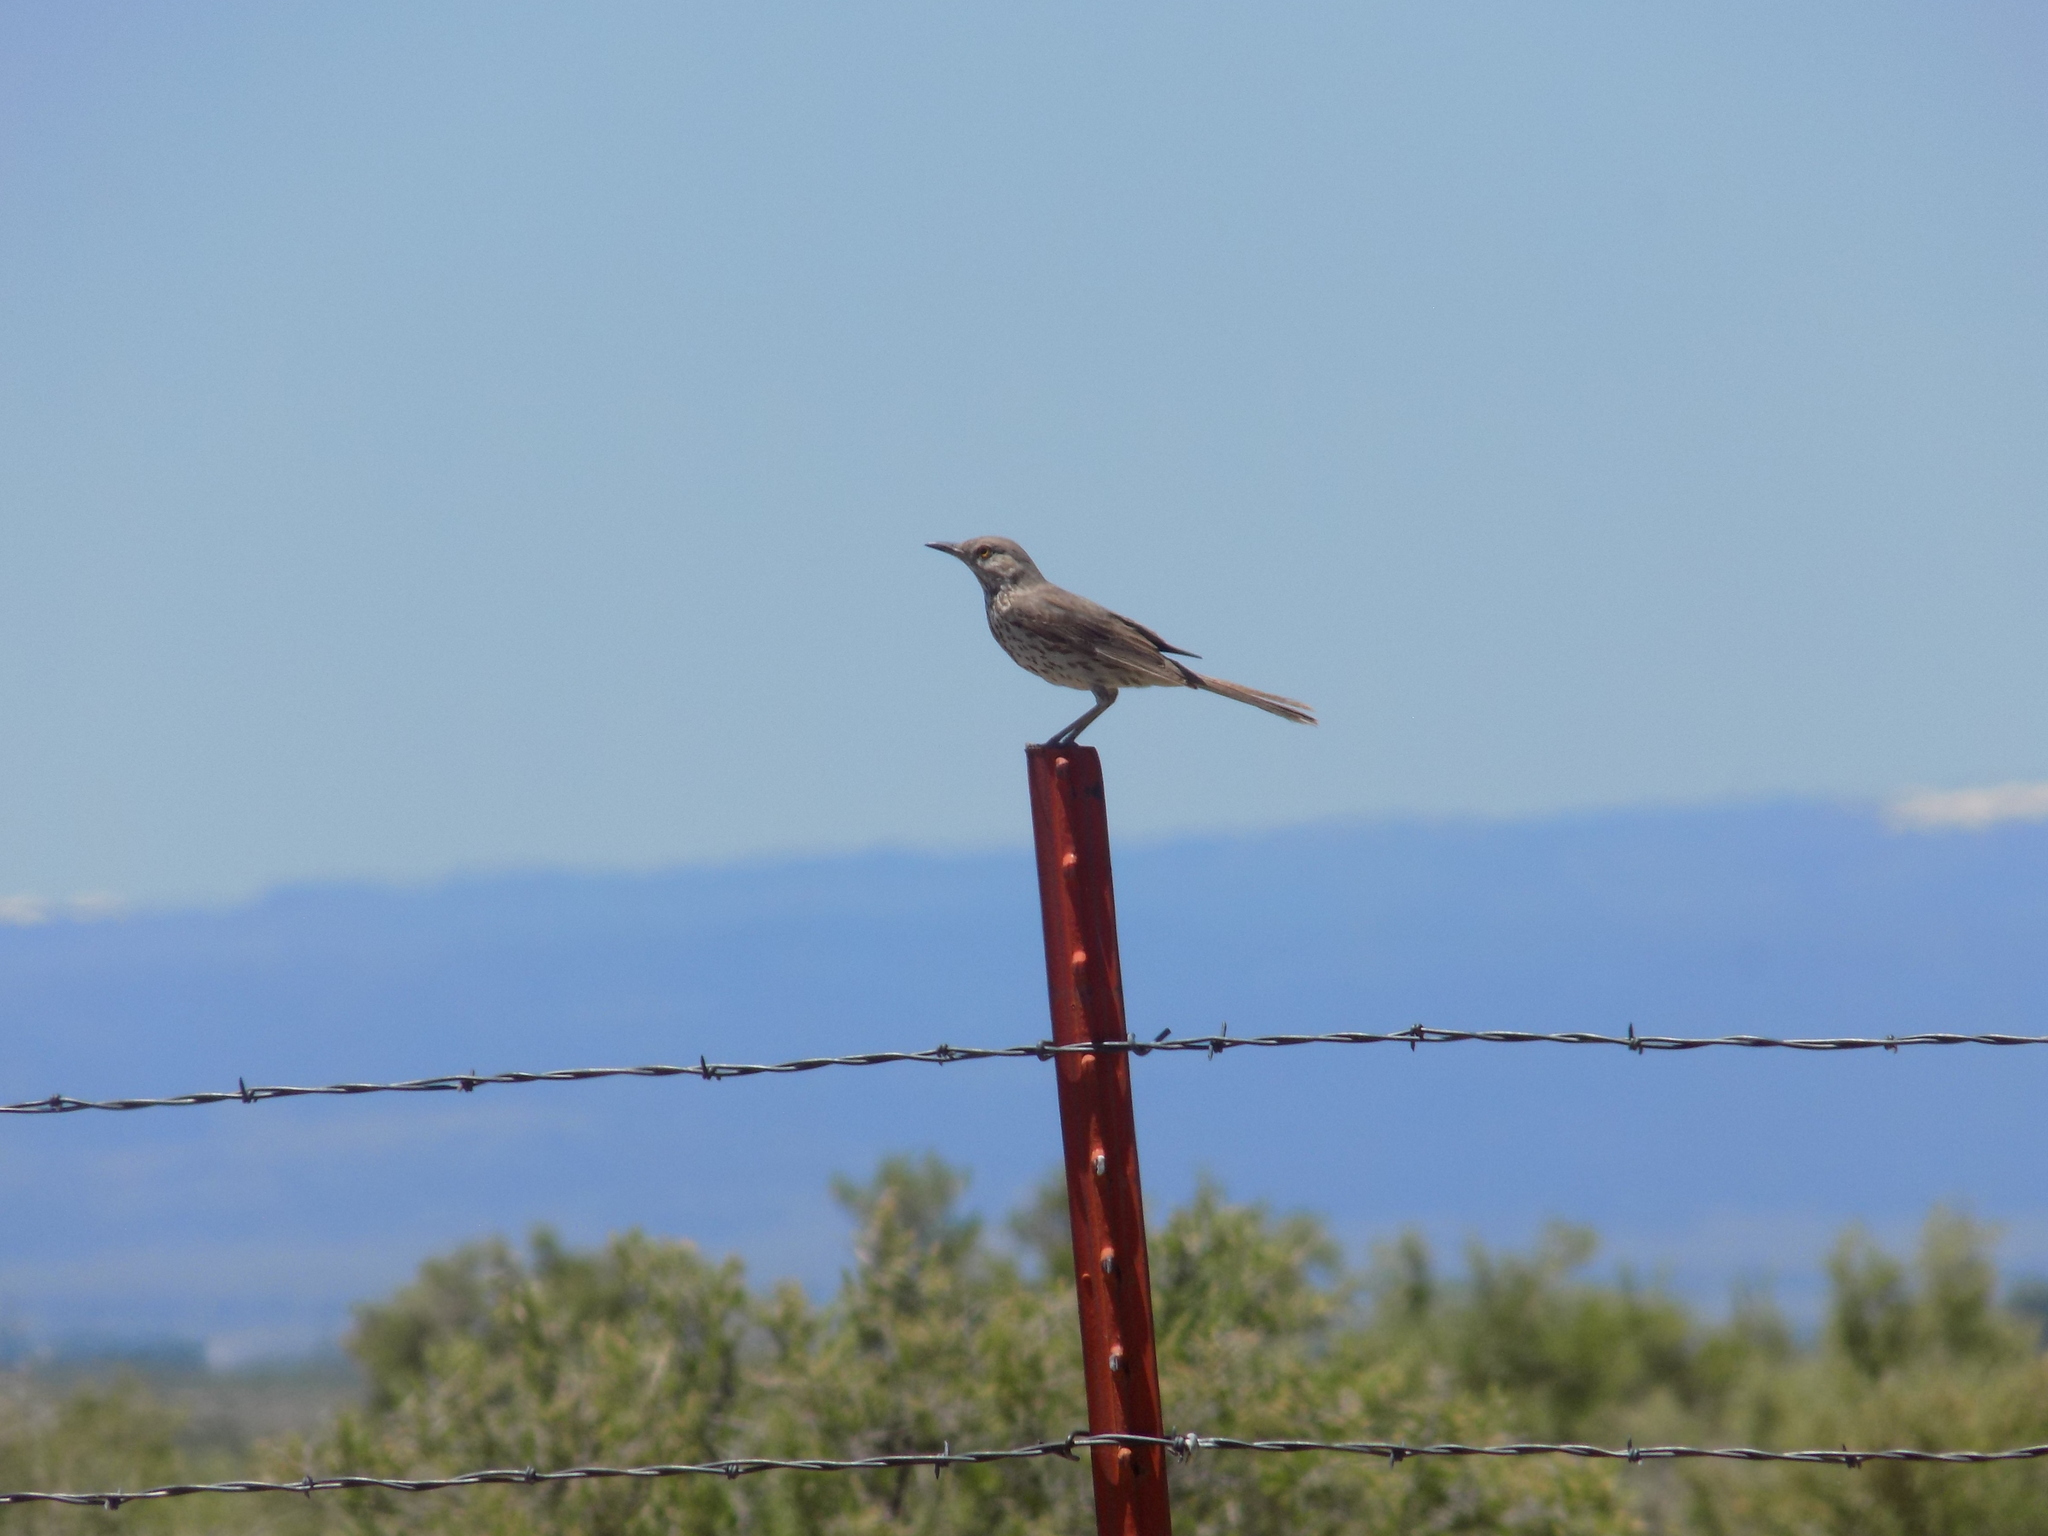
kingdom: Animalia
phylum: Chordata
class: Aves
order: Passeriformes
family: Mimidae
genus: Oreoscoptes
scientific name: Oreoscoptes montanus
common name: Sage thrasher
